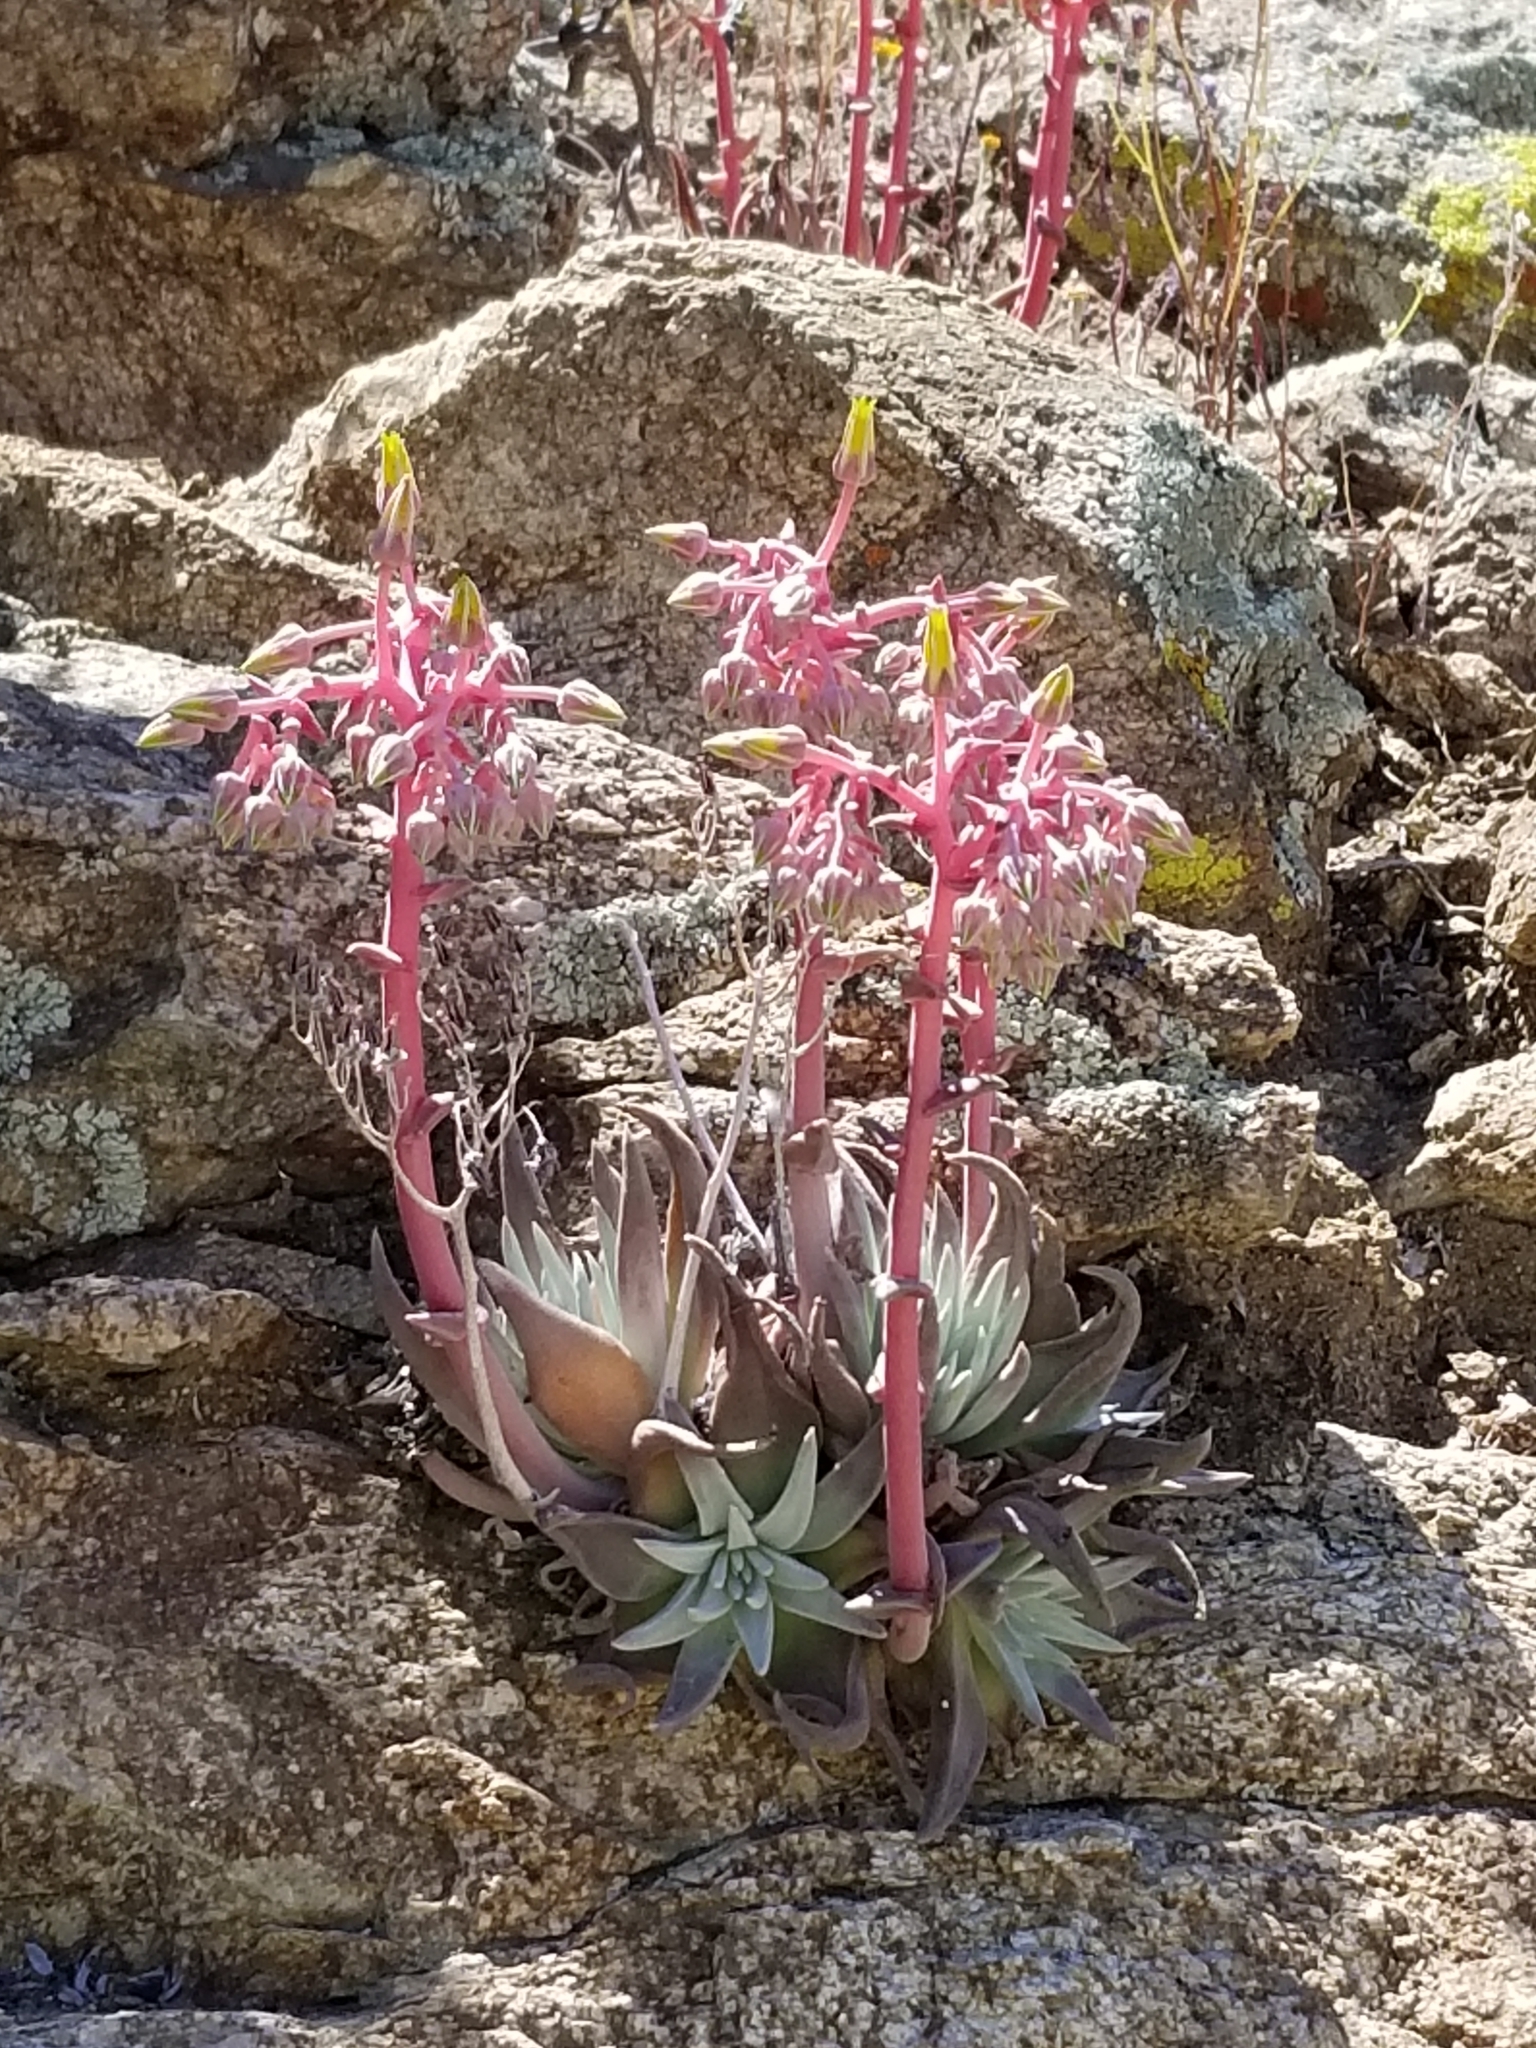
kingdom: Plantae
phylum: Tracheophyta
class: Magnoliopsida
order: Saxifragales
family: Crassulaceae
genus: Dudleya
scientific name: Dudleya saxosa
